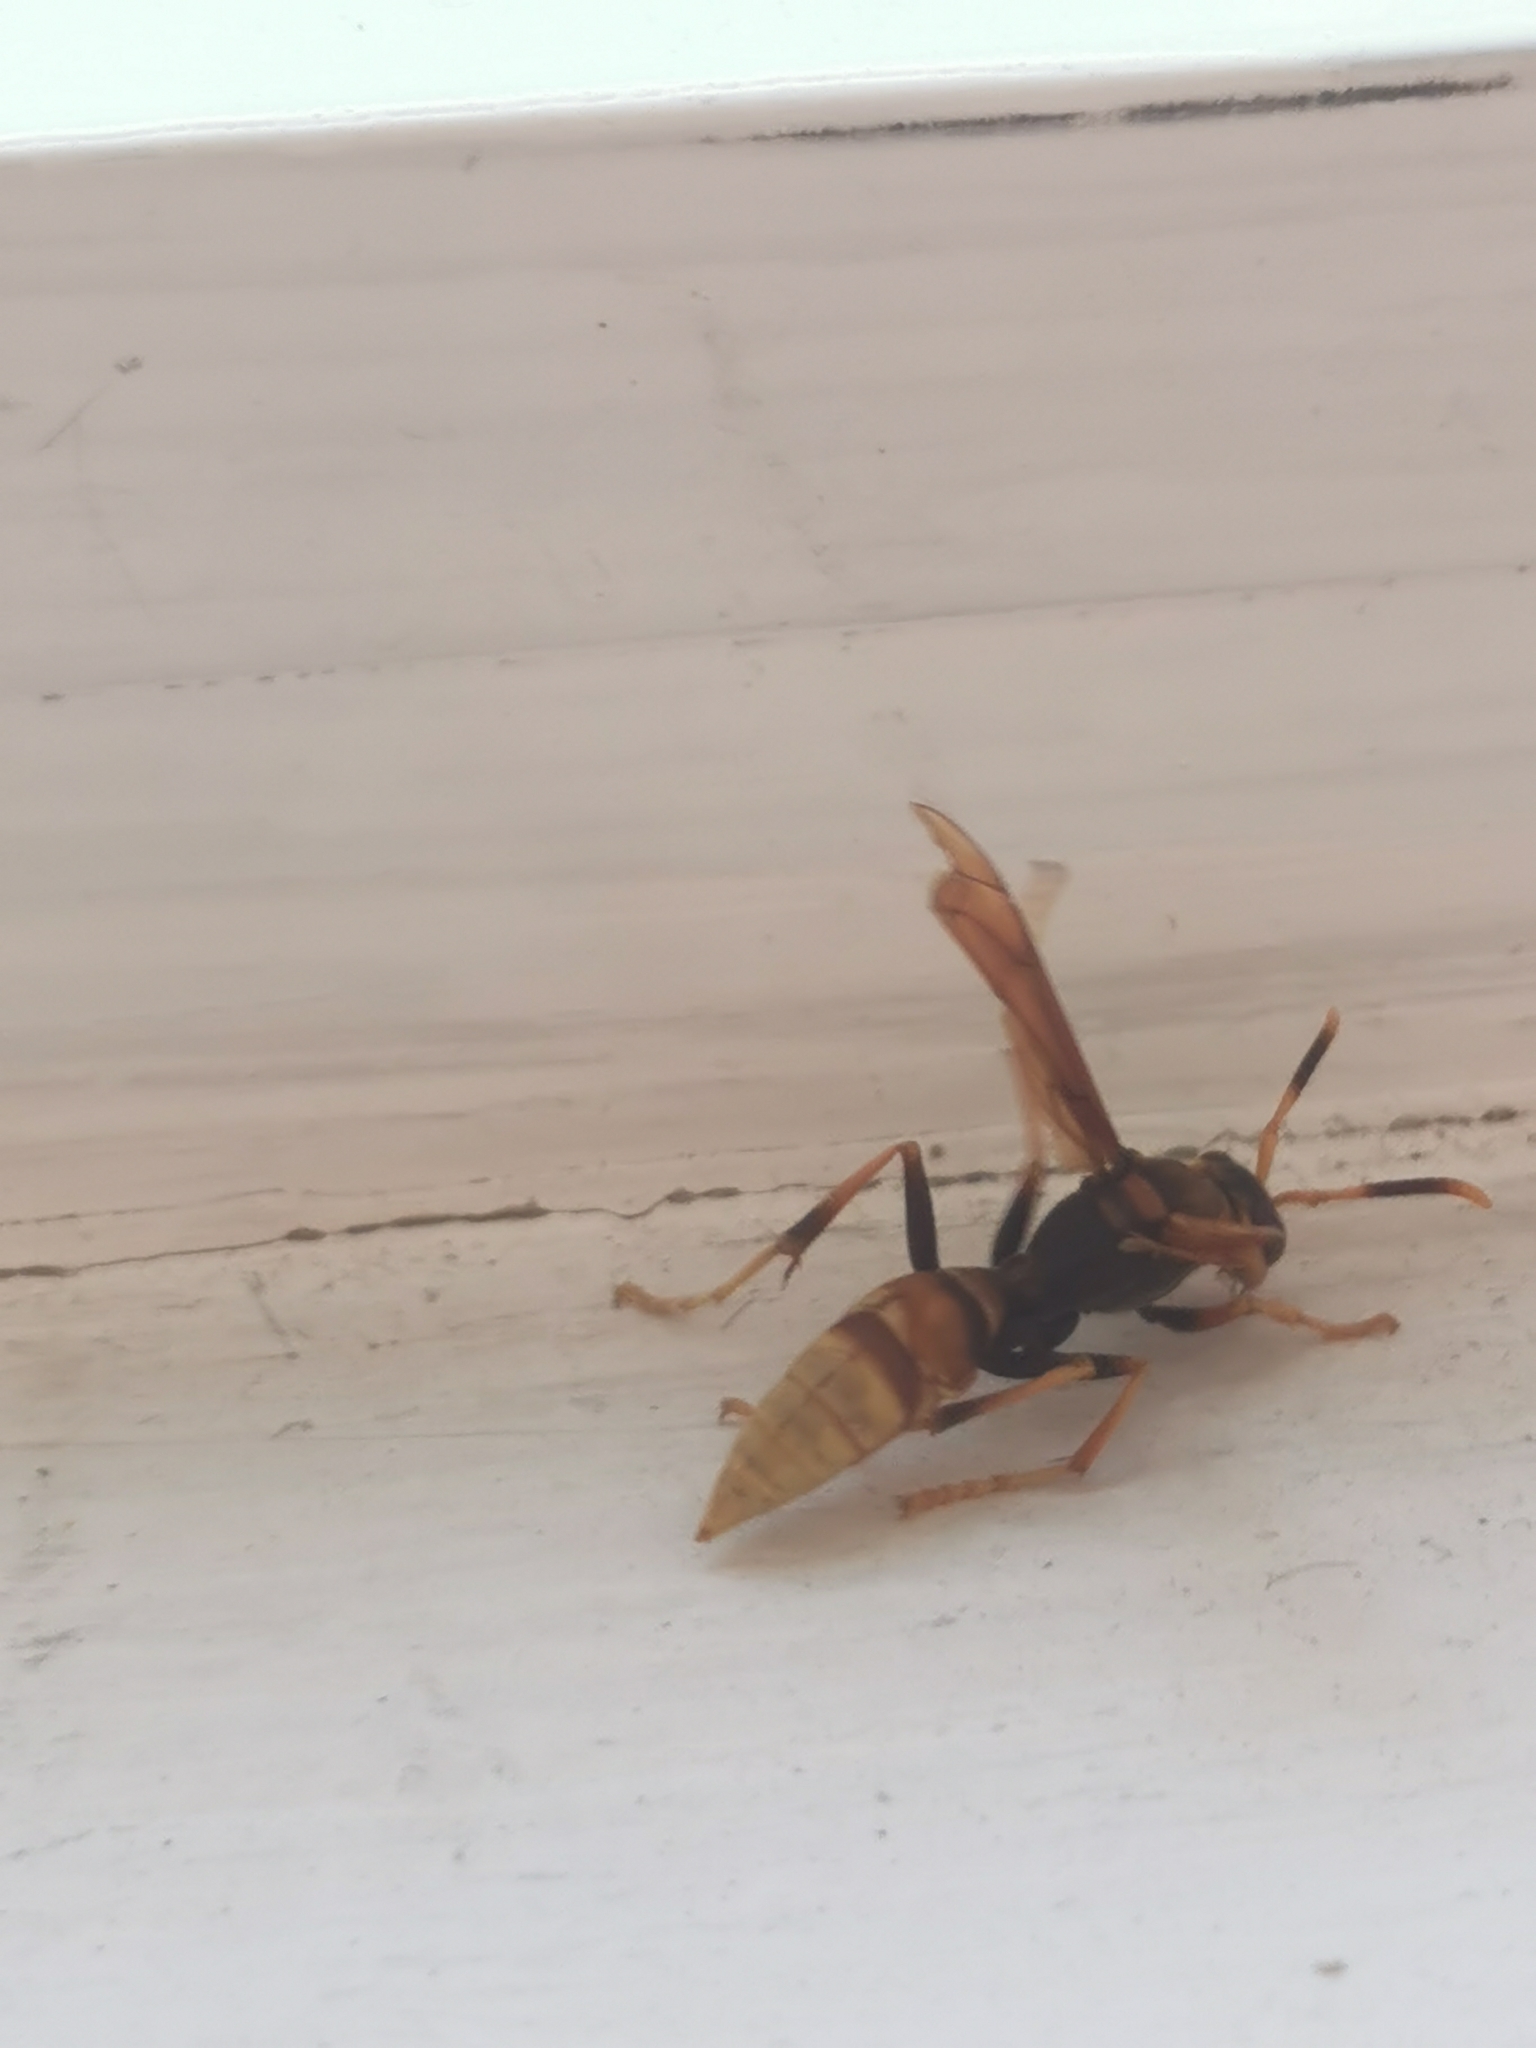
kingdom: Animalia
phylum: Arthropoda
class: Insecta
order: Hymenoptera
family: Eumenidae
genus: Polistes
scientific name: Polistes comanchus
